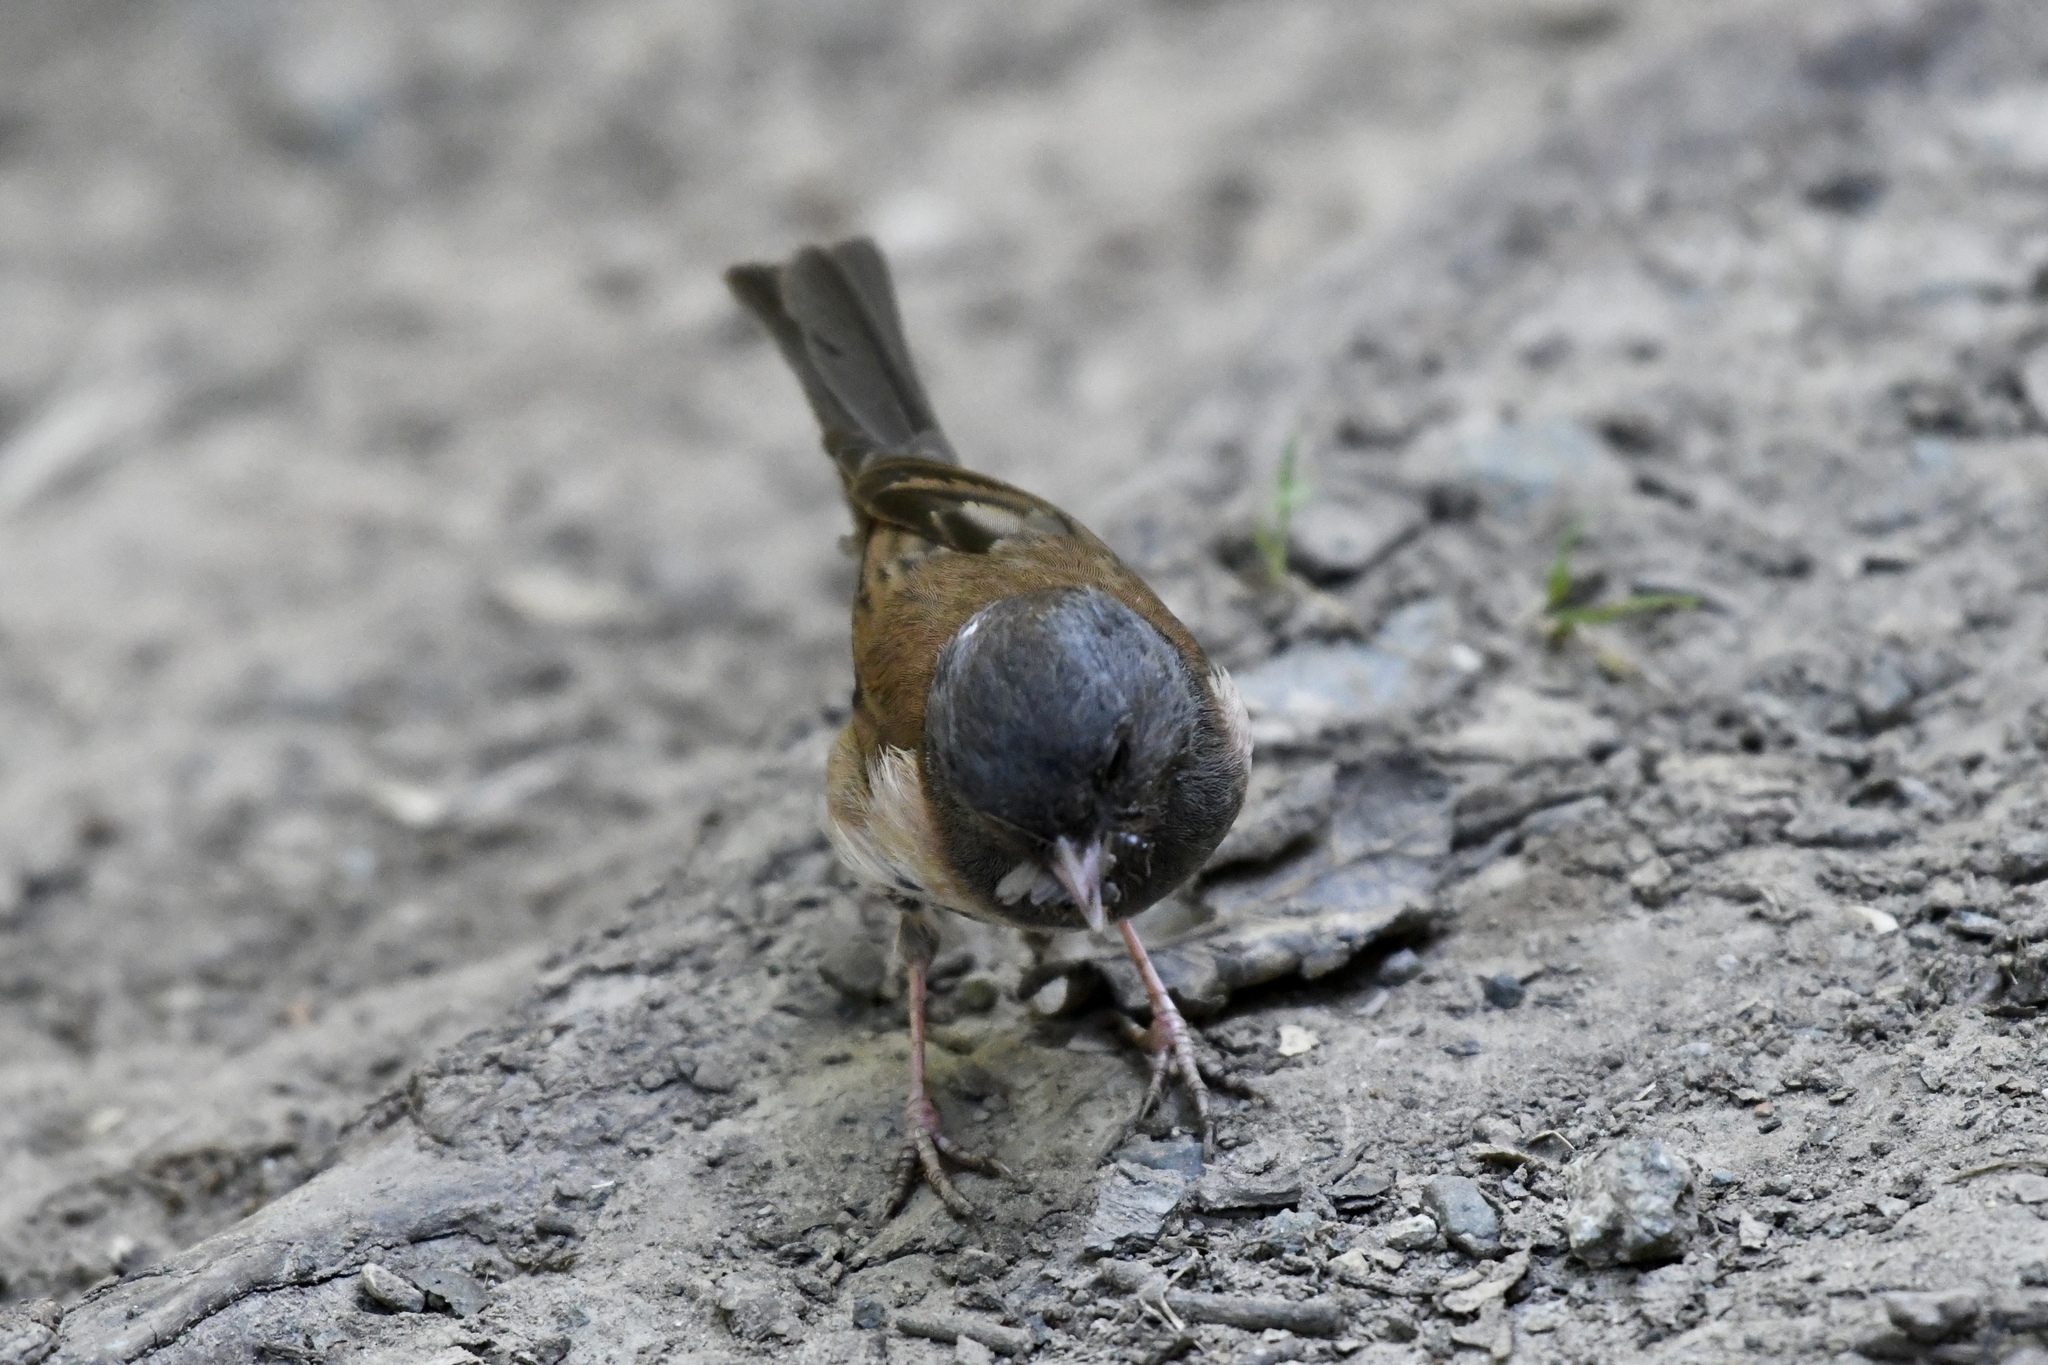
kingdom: Animalia
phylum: Chordata
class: Aves
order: Passeriformes
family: Passerellidae
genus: Junco
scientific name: Junco hyemalis
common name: Dark-eyed junco
